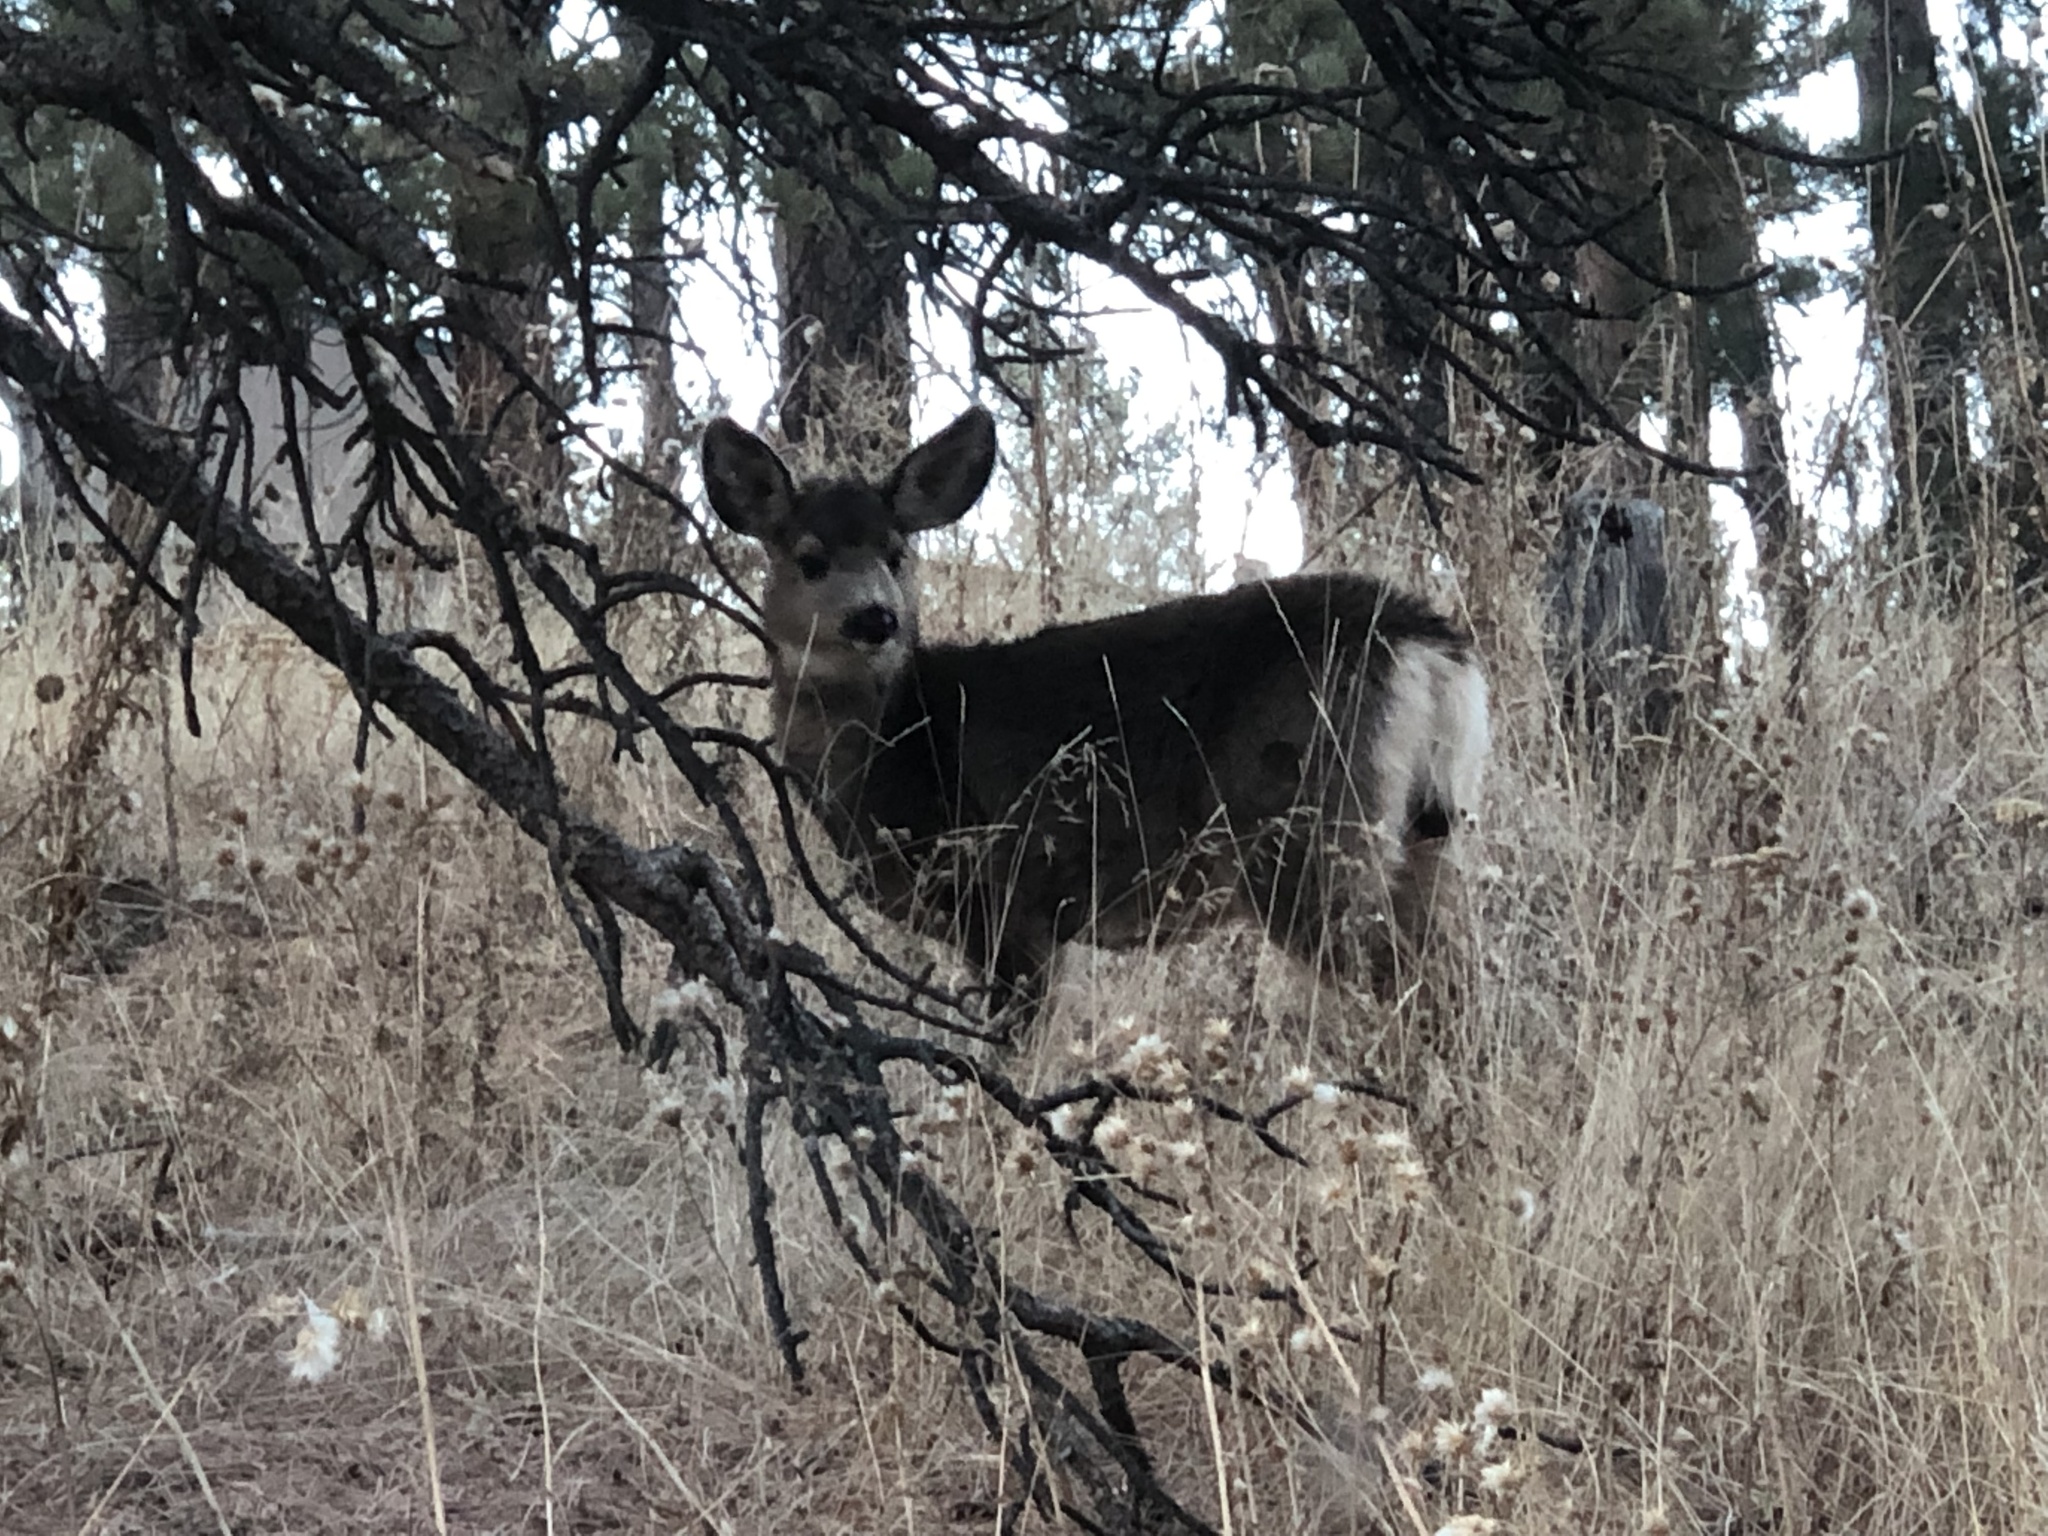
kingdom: Animalia
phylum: Chordata
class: Mammalia
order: Artiodactyla
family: Cervidae
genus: Odocoileus
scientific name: Odocoileus hemionus
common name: Mule deer
